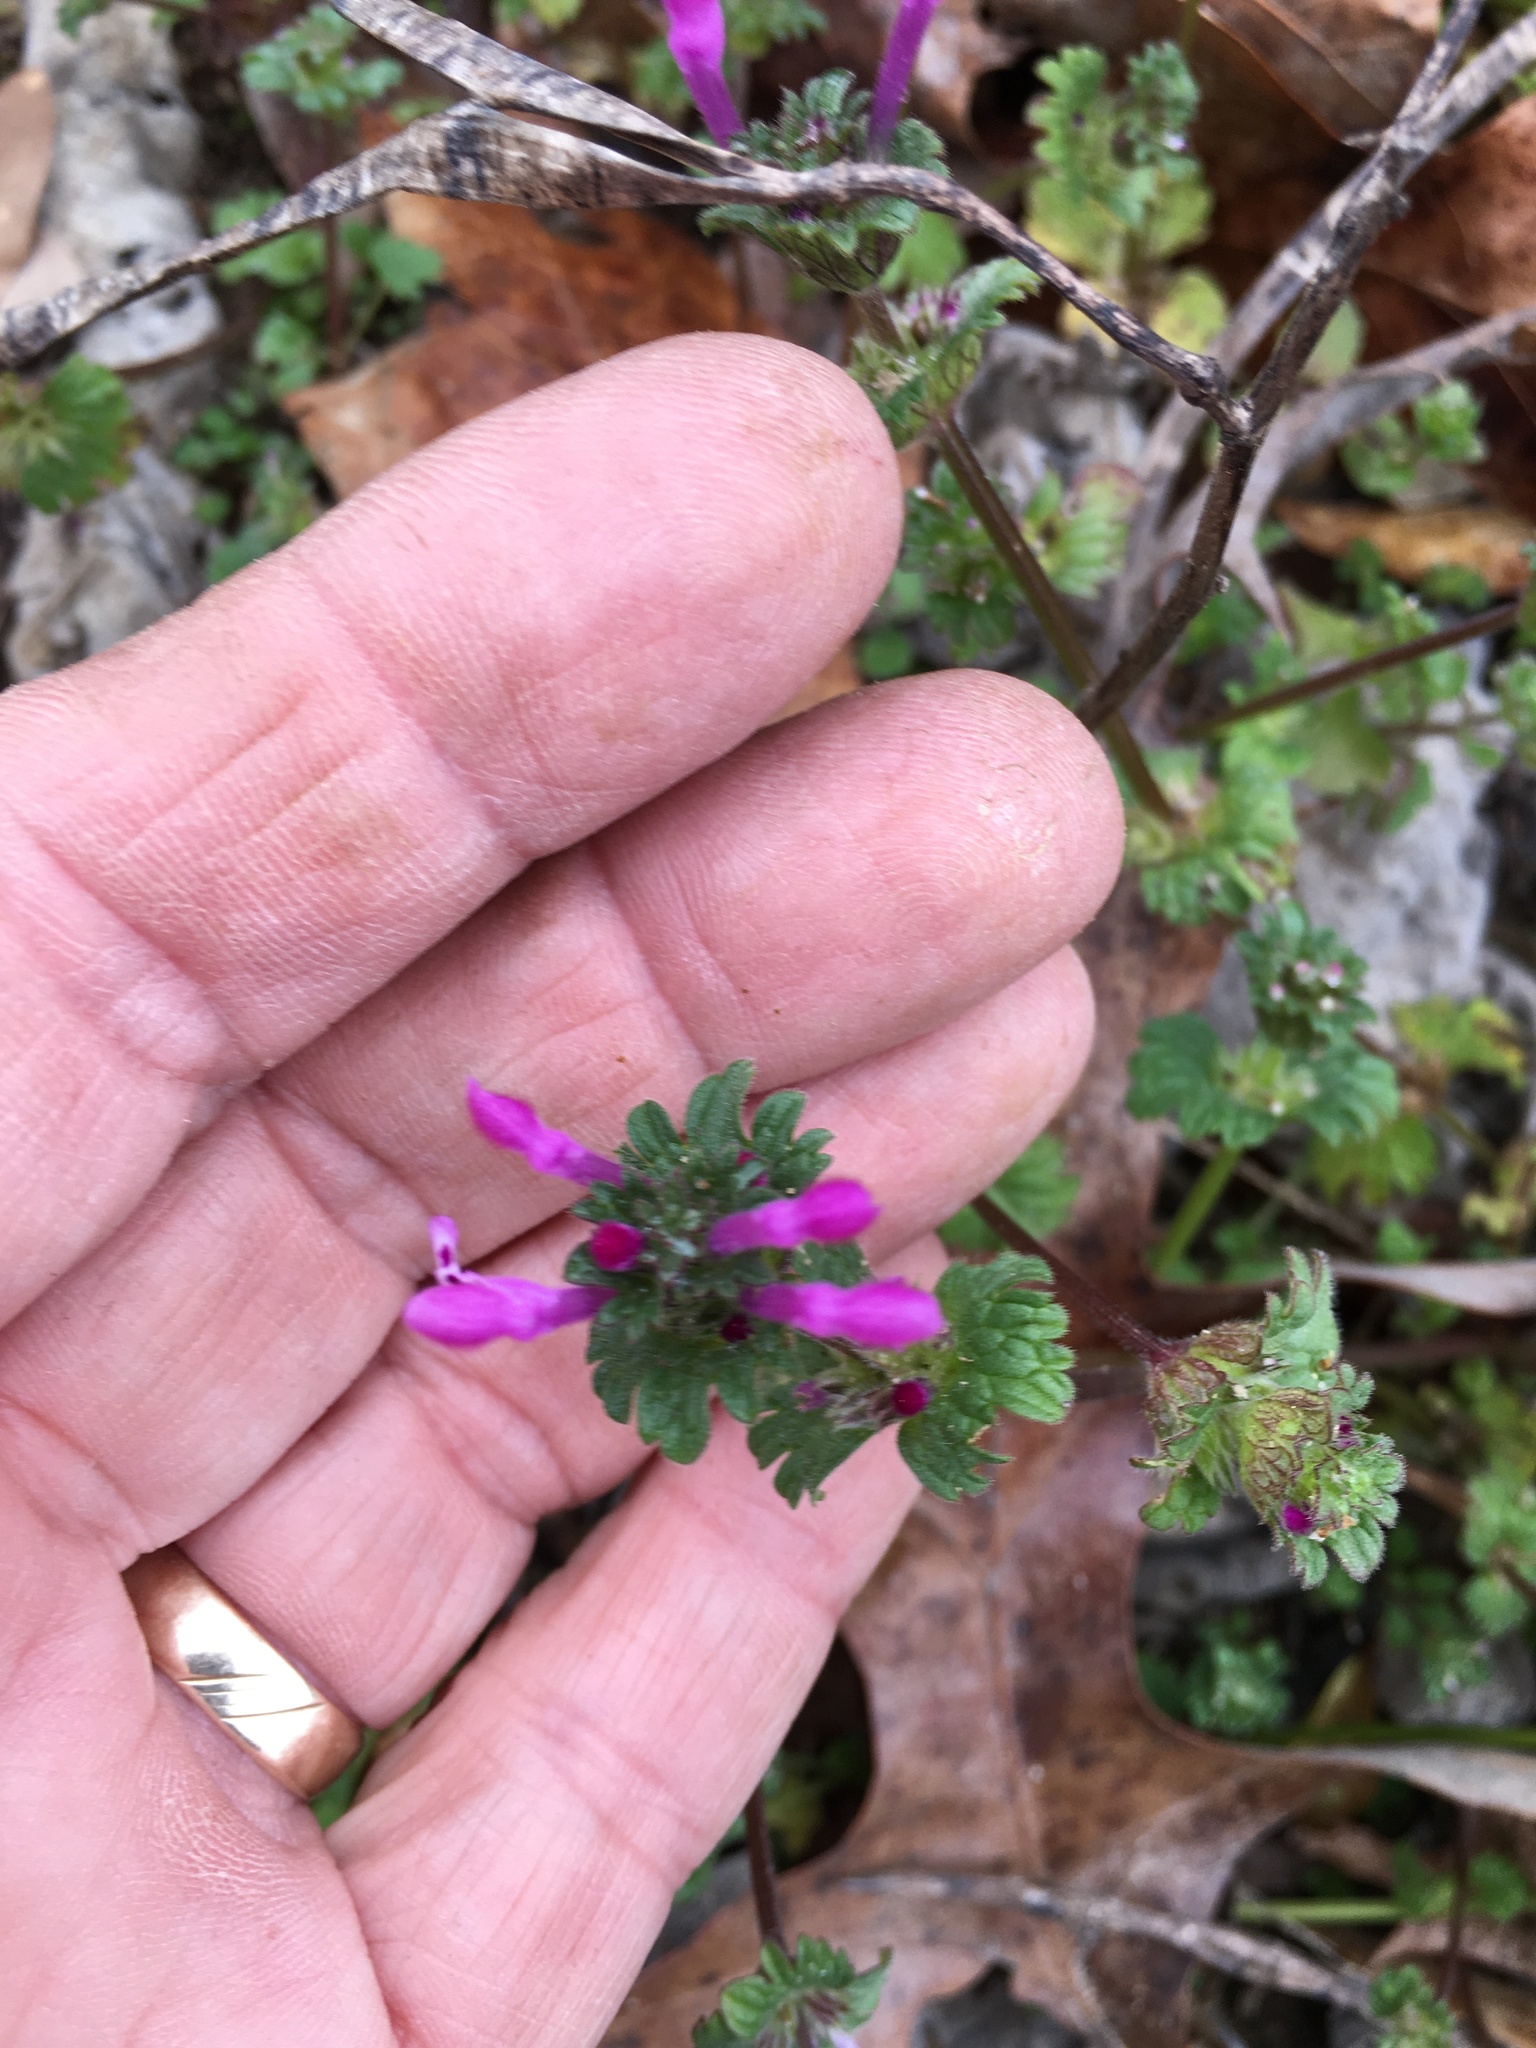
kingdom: Plantae
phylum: Tracheophyta
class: Magnoliopsida
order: Lamiales
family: Lamiaceae
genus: Lamium
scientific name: Lamium amplexicaule
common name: Henbit dead-nettle
